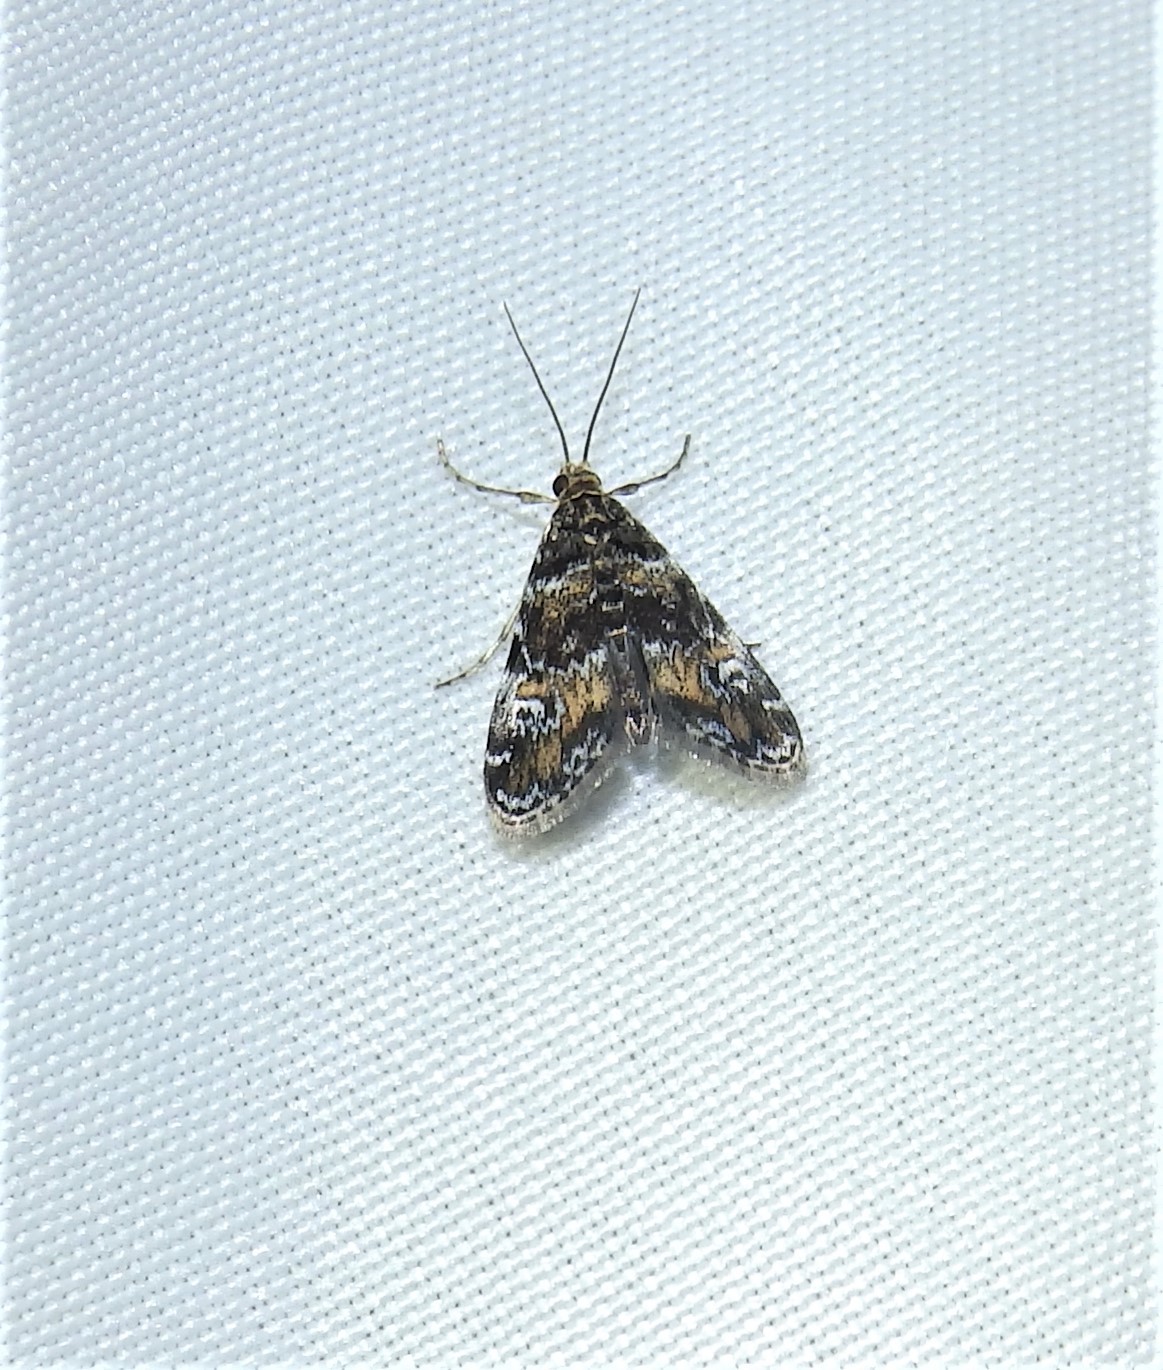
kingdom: Animalia
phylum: Arthropoda
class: Insecta
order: Lepidoptera
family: Crambidae
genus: Elophila
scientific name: Elophila obliteralis
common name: Waterlily leafcutter moth
